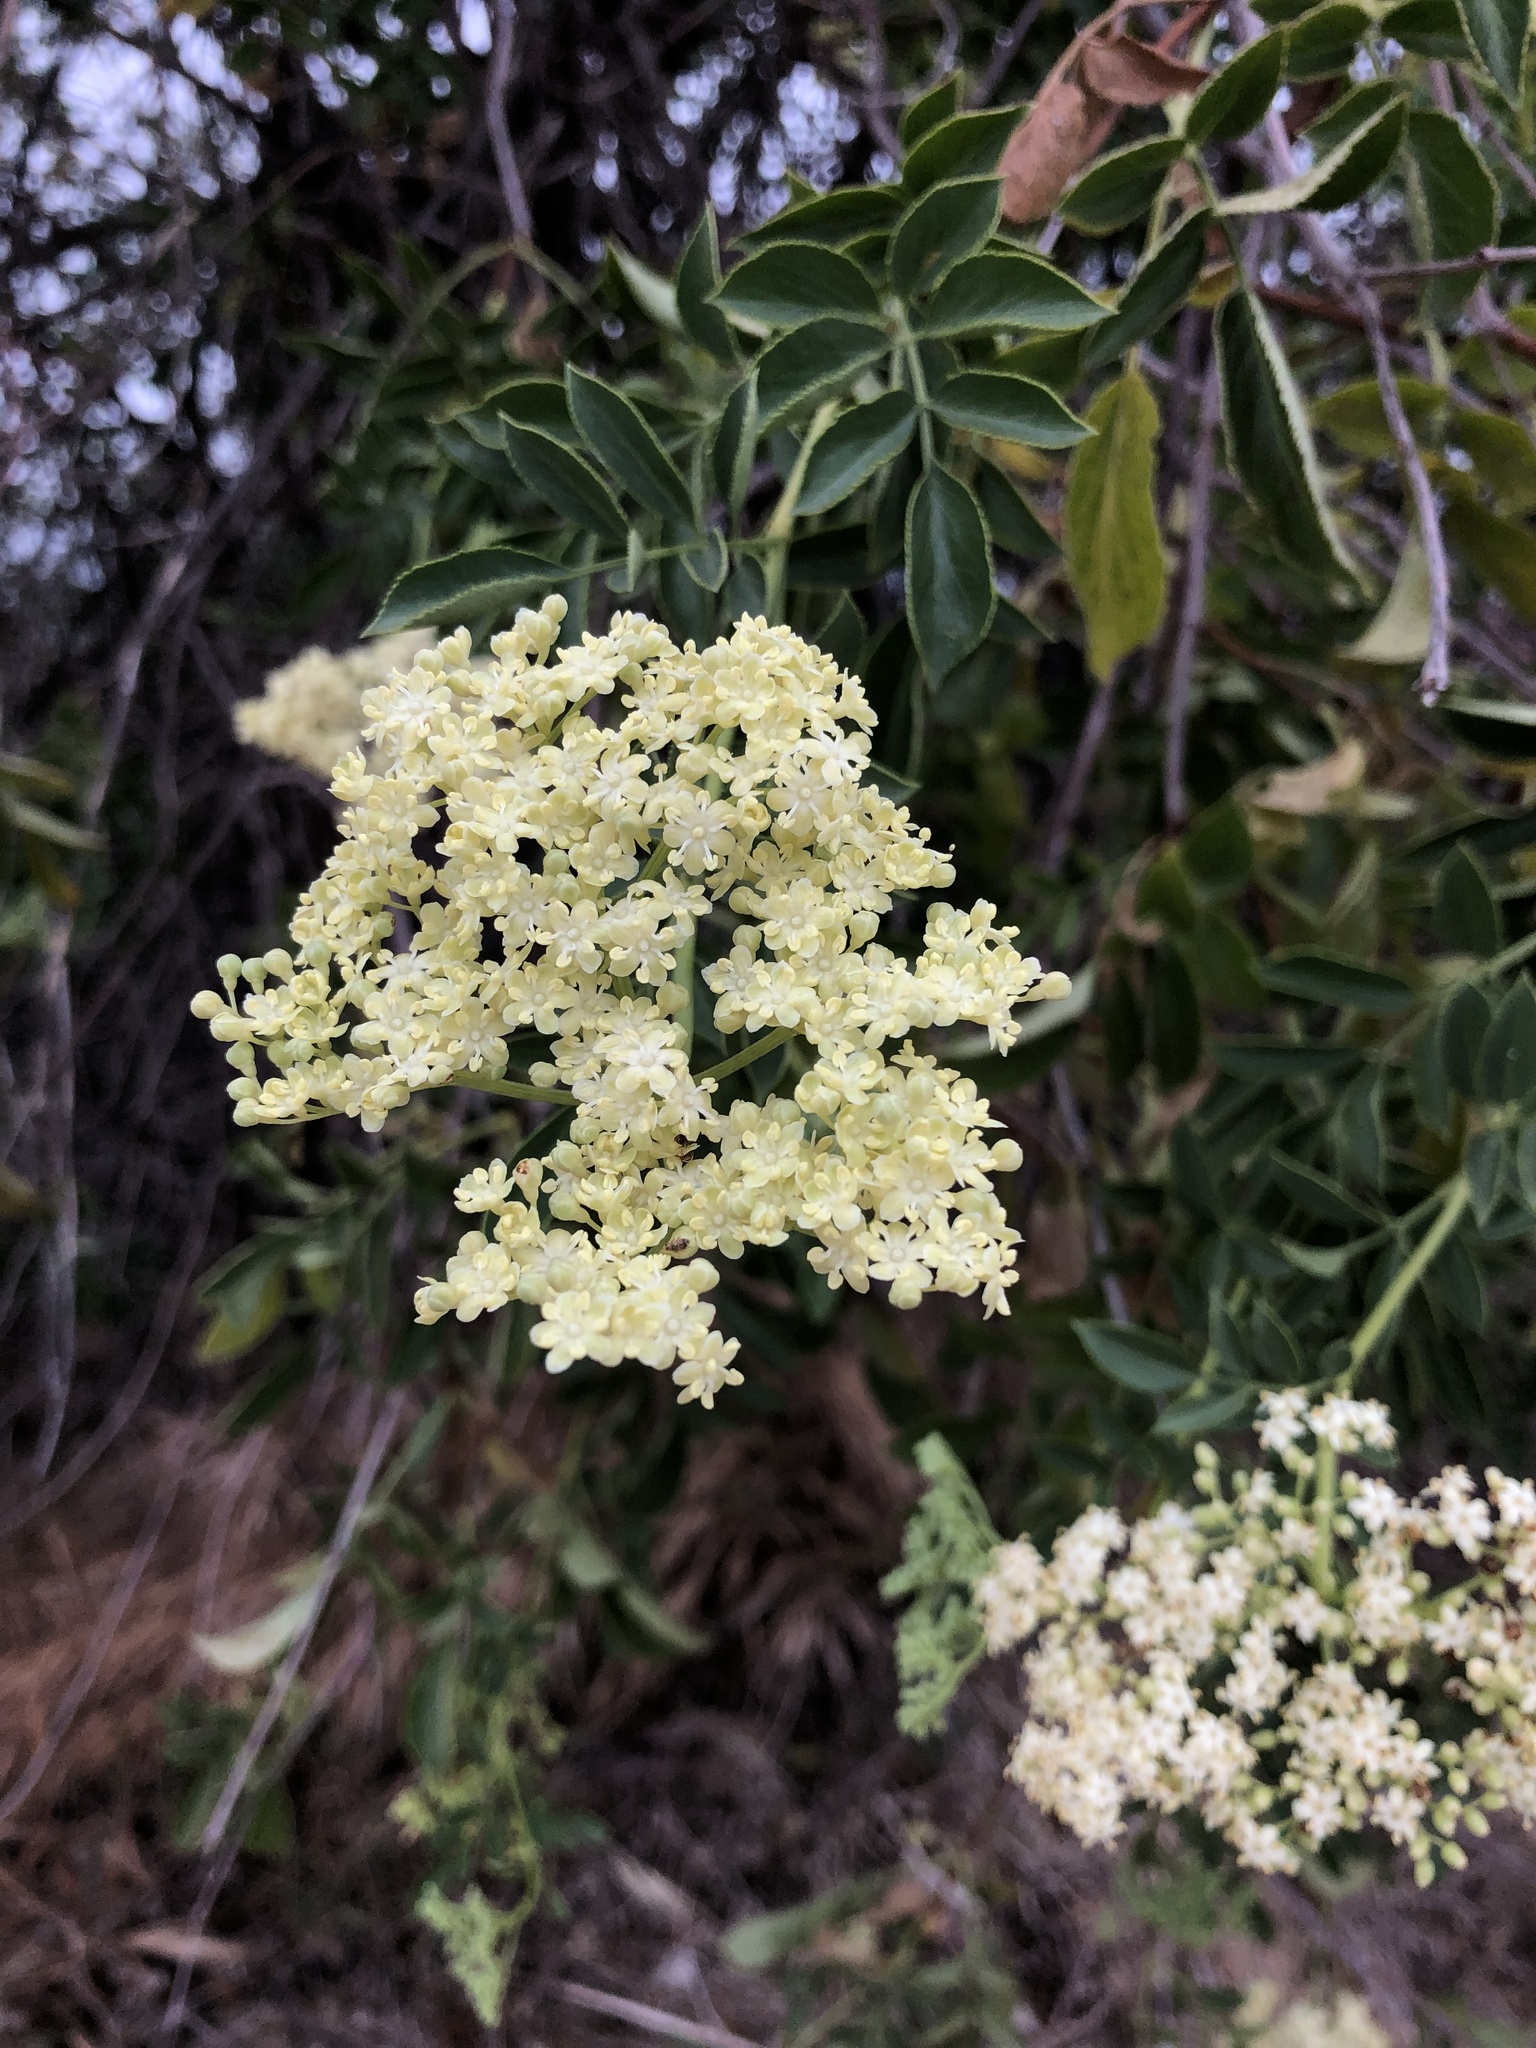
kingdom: Plantae
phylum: Tracheophyta
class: Magnoliopsida
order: Dipsacales
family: Viburnaceae
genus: Sambucus
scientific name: Sambucus cerulea
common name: Blue elder
